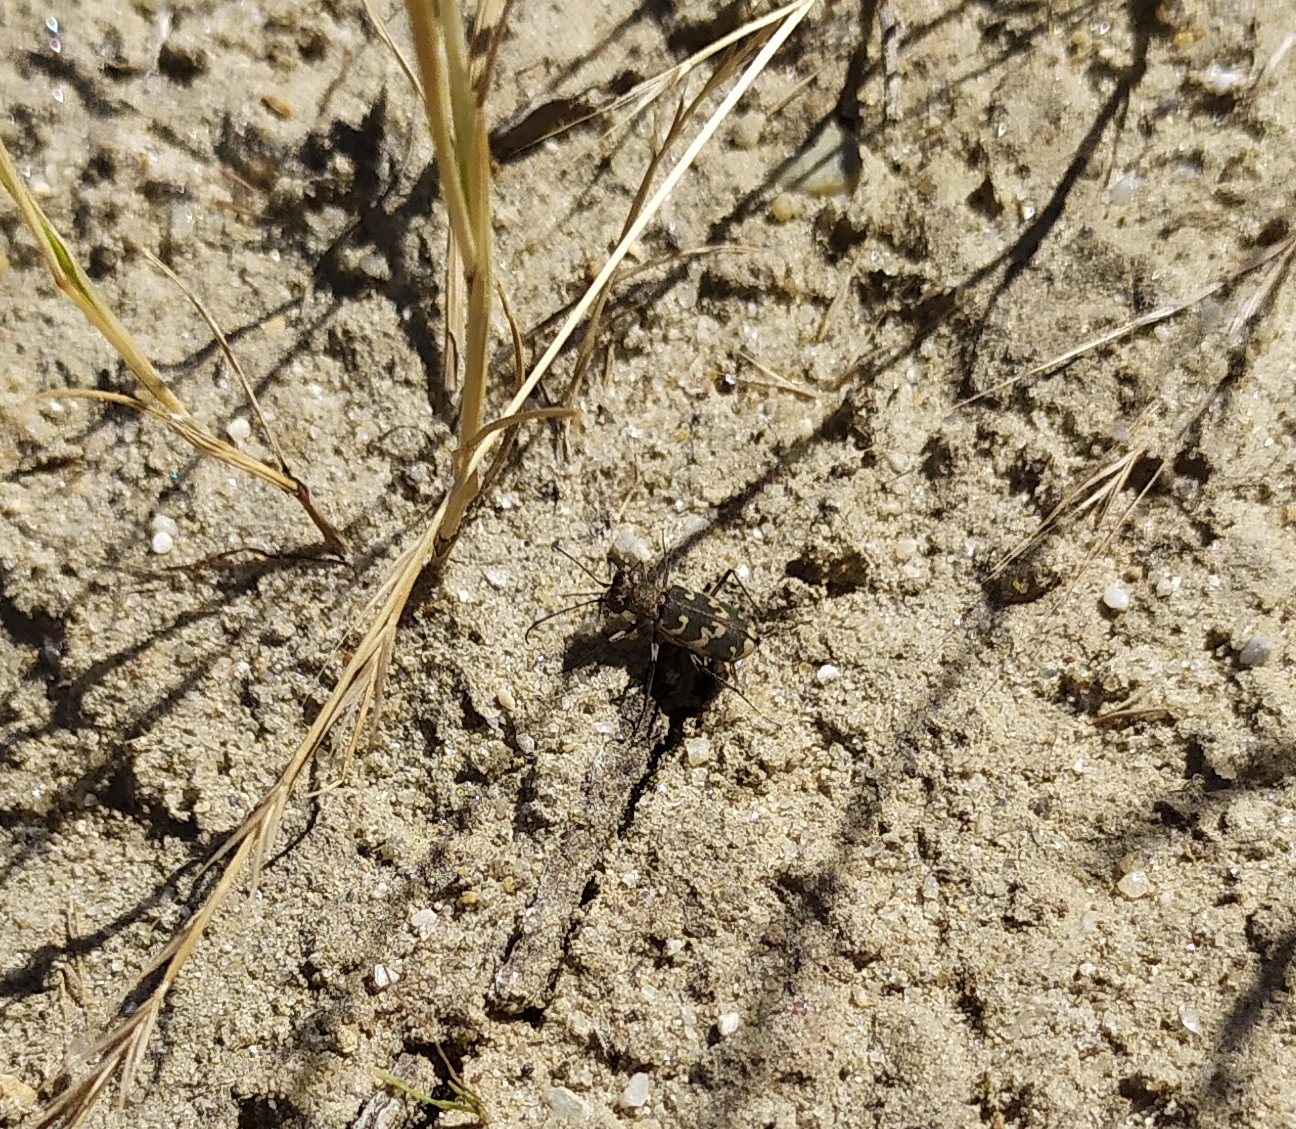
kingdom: Animalia
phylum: Arthropoda
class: Insecta
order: Coleoptera
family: Carabidae
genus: Cylindera
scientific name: Cylindera arenaria
